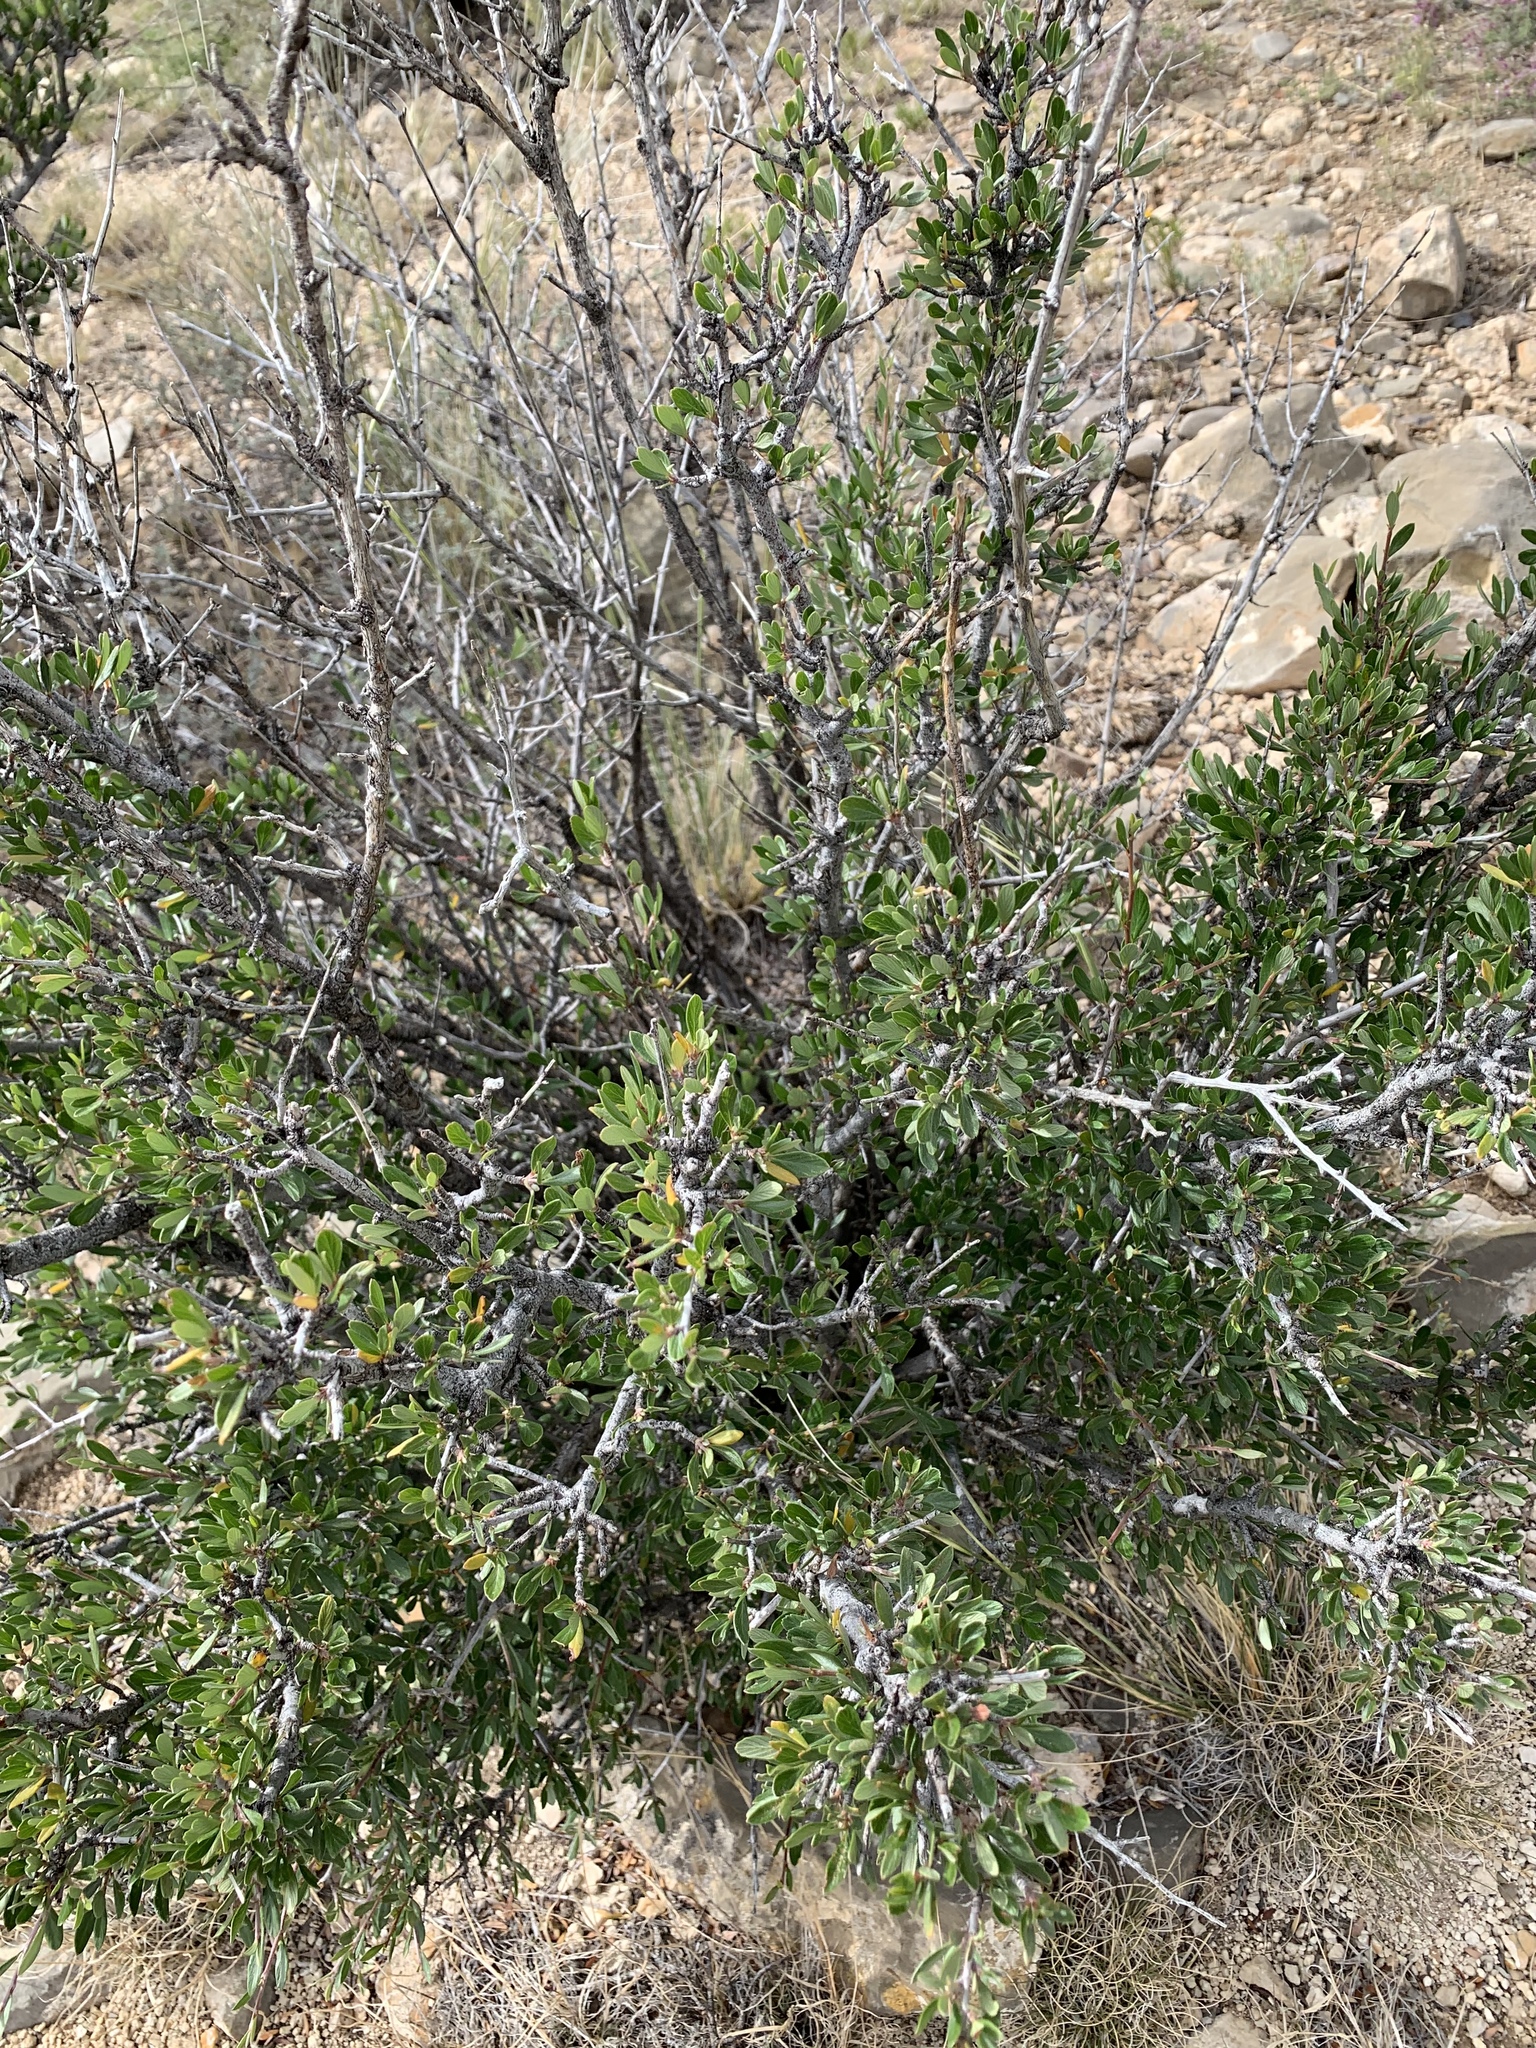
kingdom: Plantae
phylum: Tracheophyta
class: Magnoliopsida
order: Rosales
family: Rosaceae
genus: Cercocarpus
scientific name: Cercocarpus breviflorus
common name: Wright's mountain-mahogany
